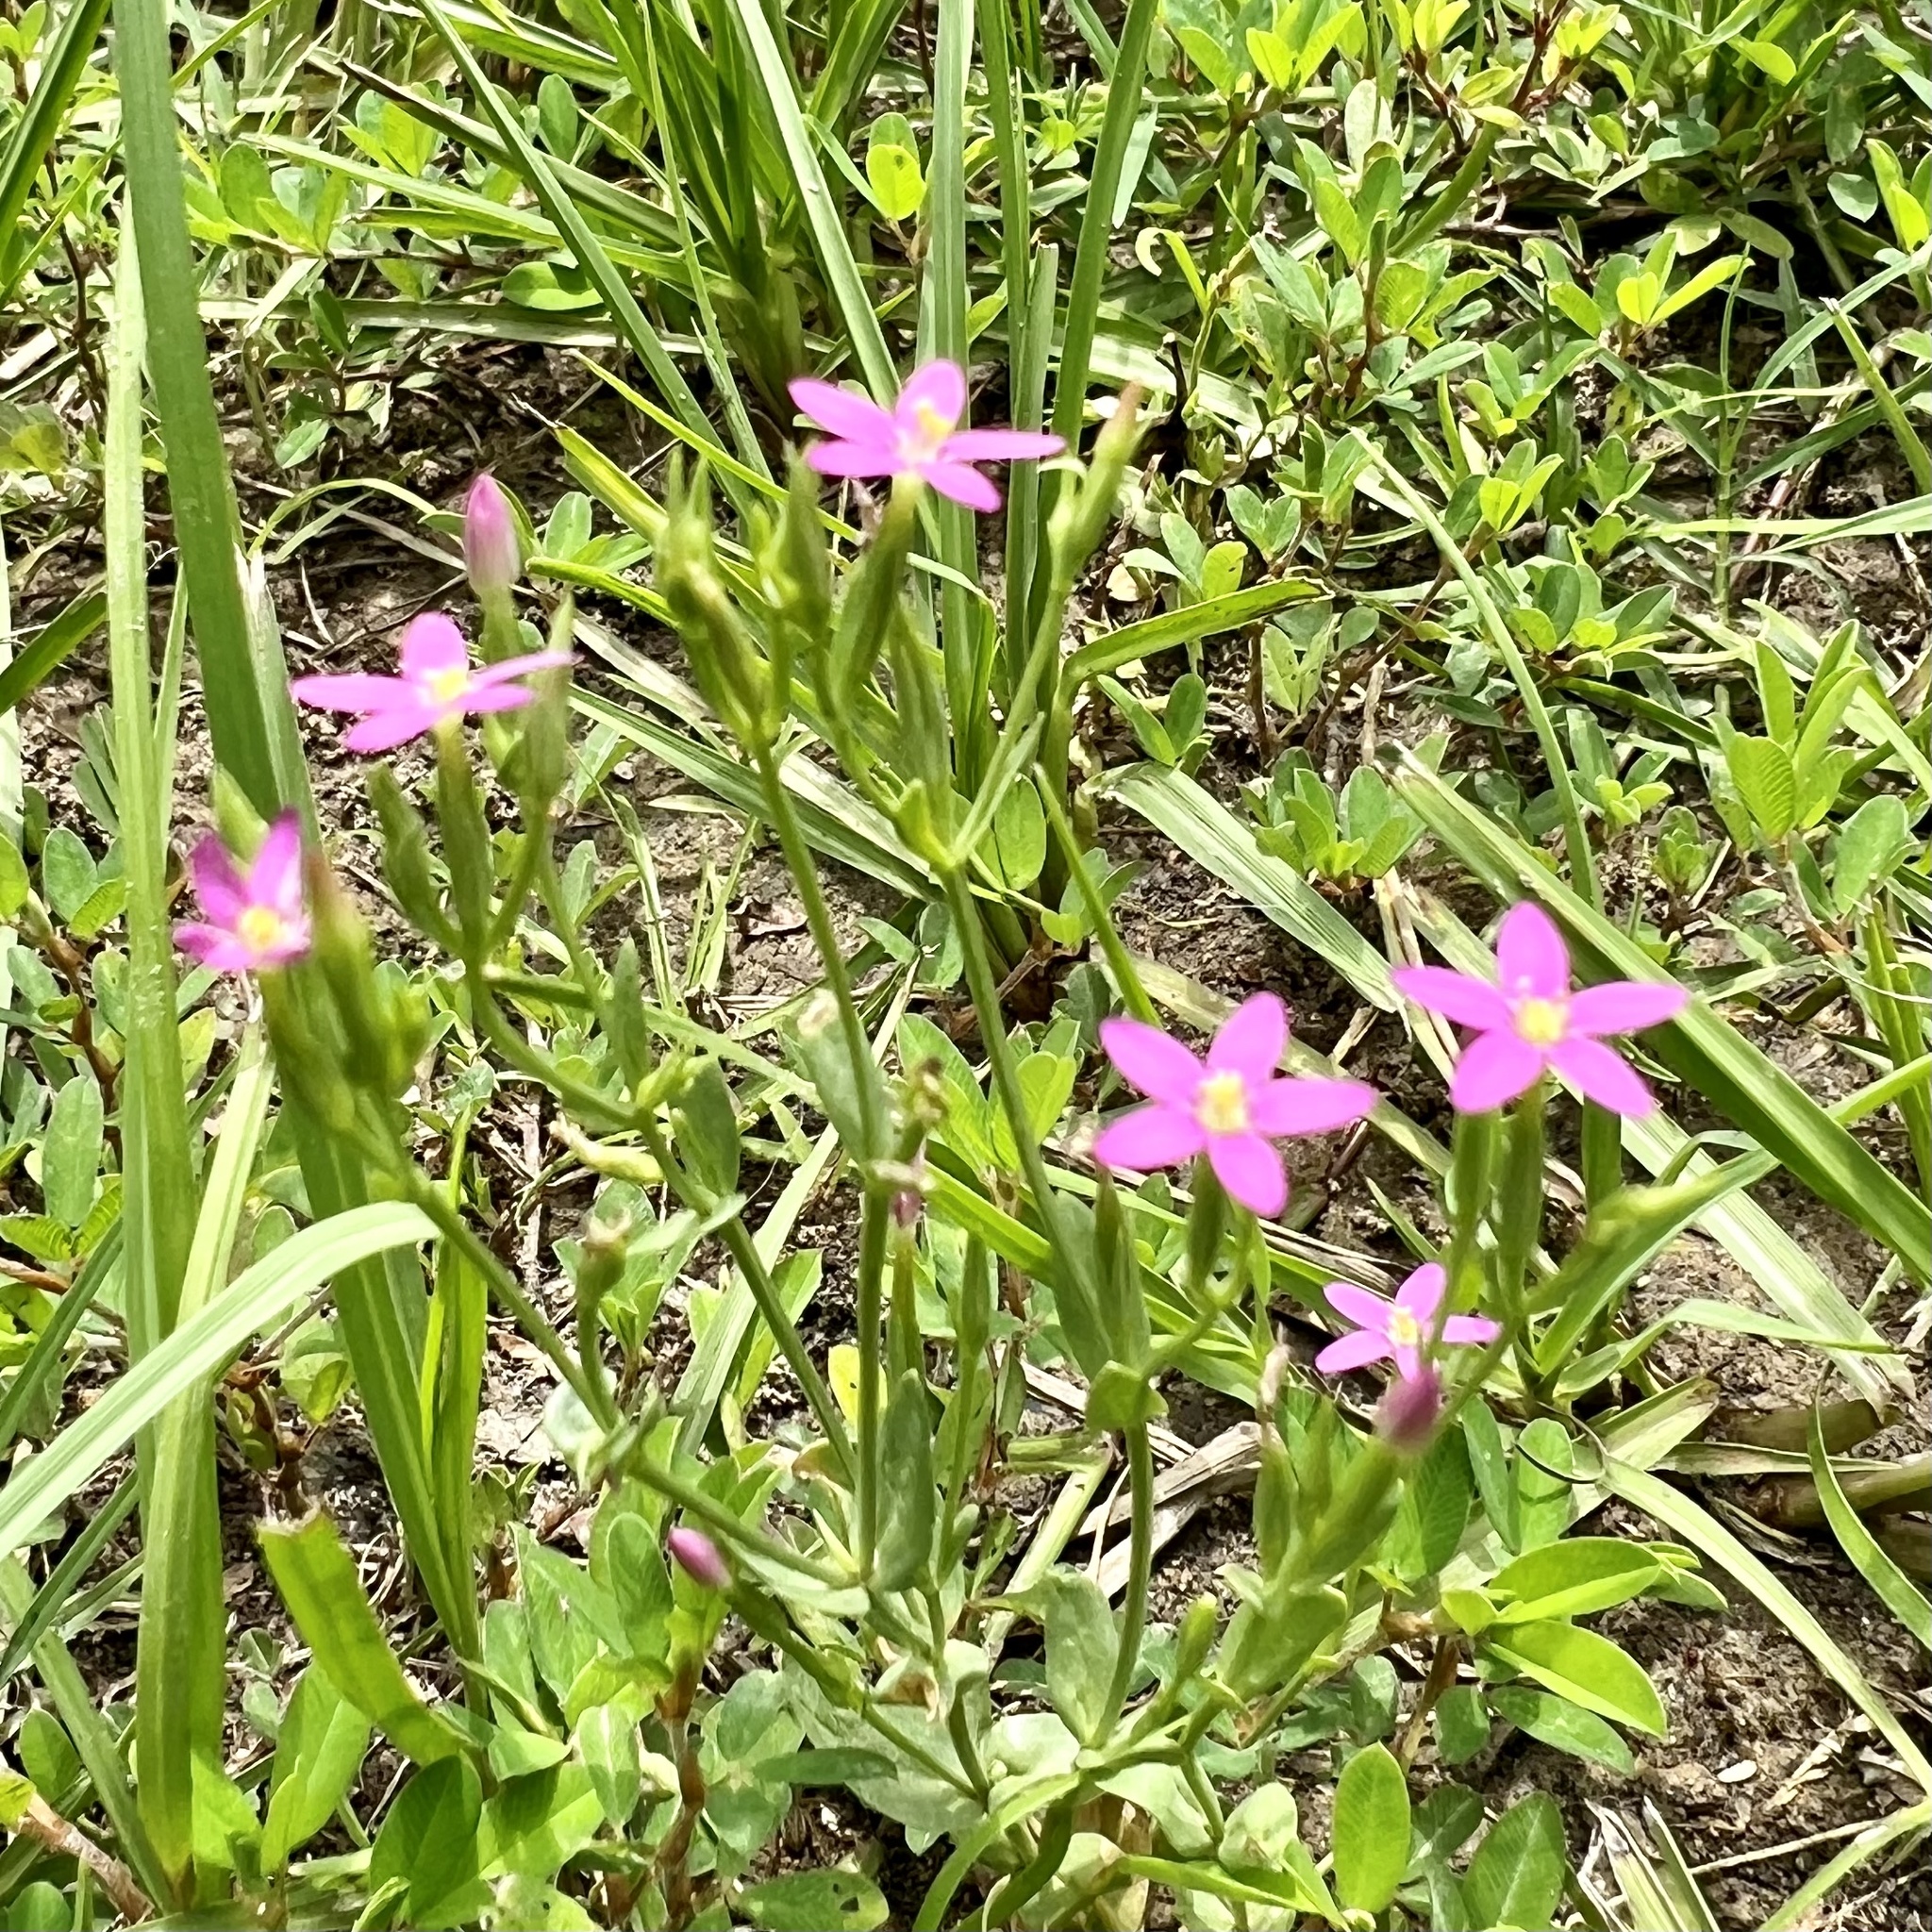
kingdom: Plantae
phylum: Tracheophyta
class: Magnoliopsida
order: Gentianales
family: Gentianaceae
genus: Centaurium
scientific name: Centaurium pulchellum
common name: Lesser centaury
